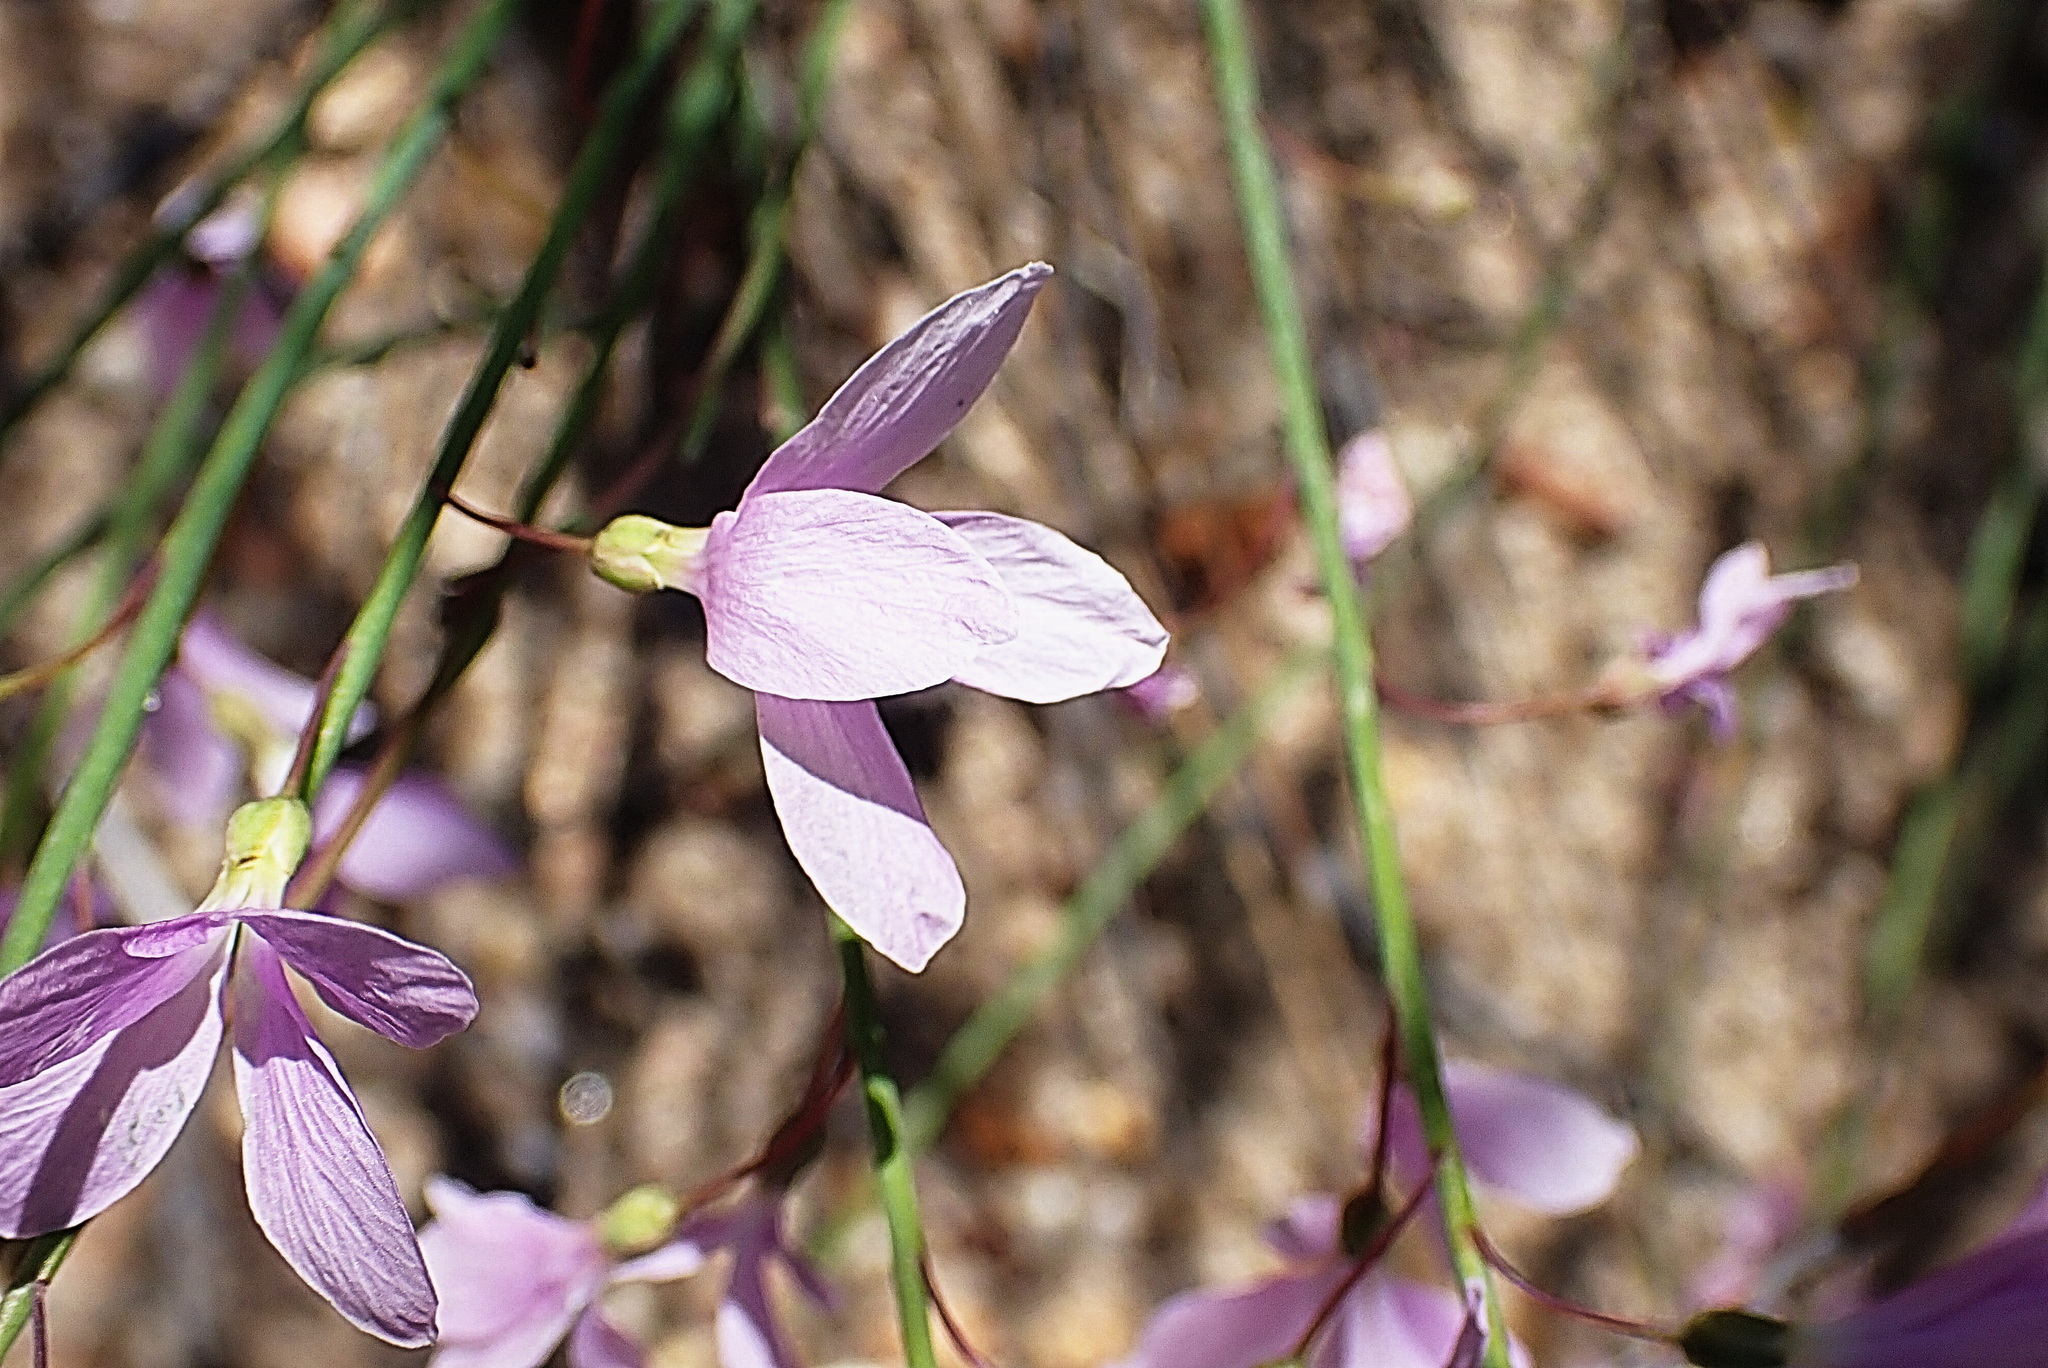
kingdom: Plantae
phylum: Tracheophyta
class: Magnoliopsida
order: Brassicales
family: Brassicaceae
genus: Heliophila
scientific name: Heliophila juncea
